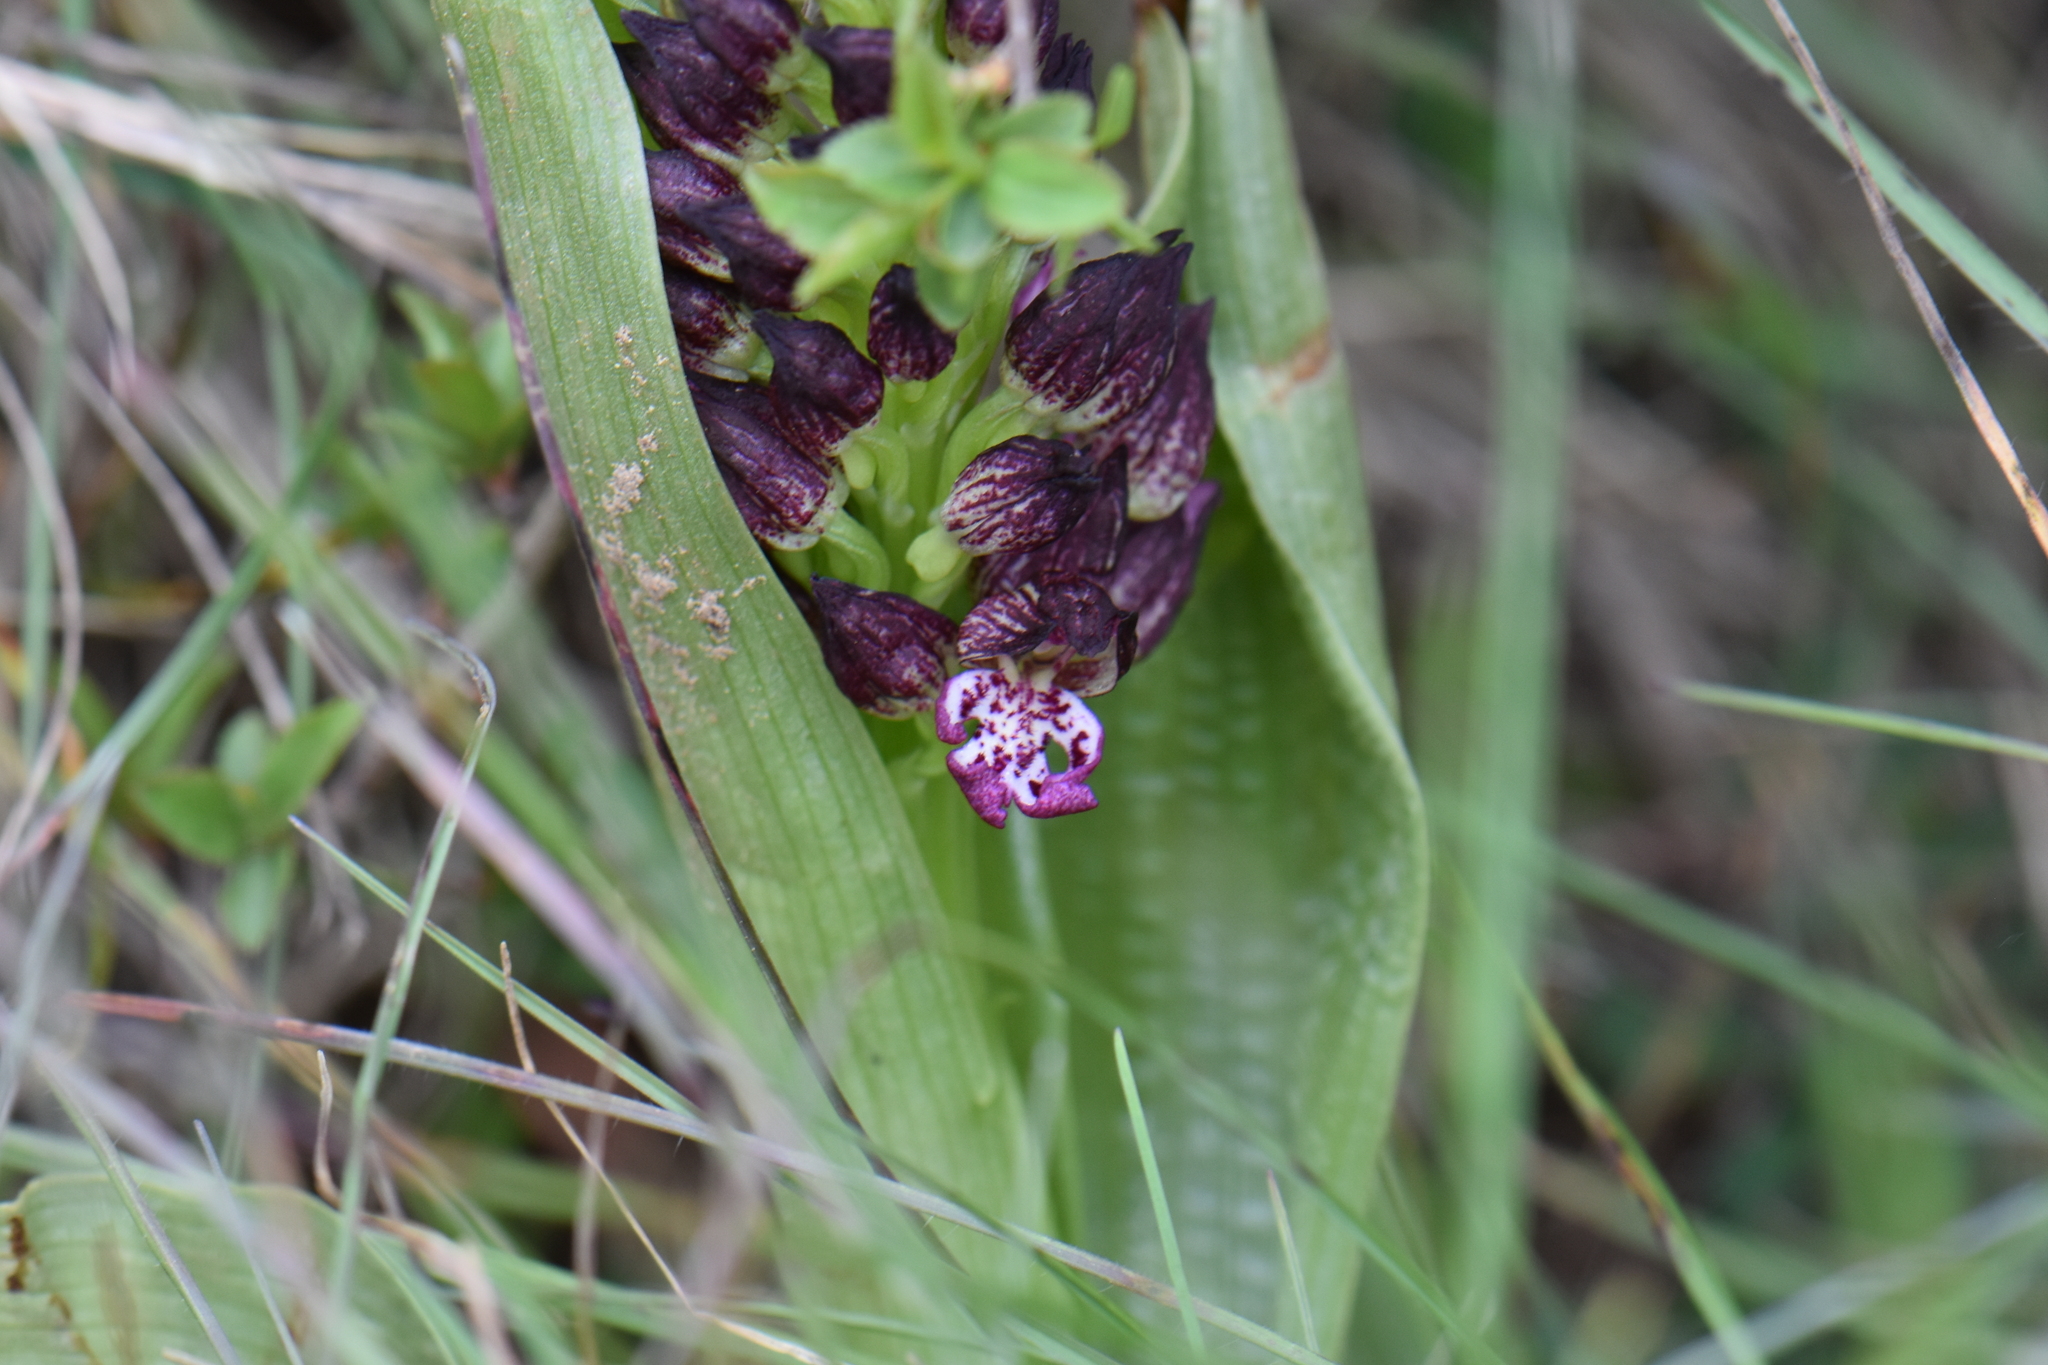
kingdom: Plantae
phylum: Tracheophyta
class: Liliopsida
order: Asparagales
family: Orchidaceae
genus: Orchis
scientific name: Orchis purpurea
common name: Lady orchid
